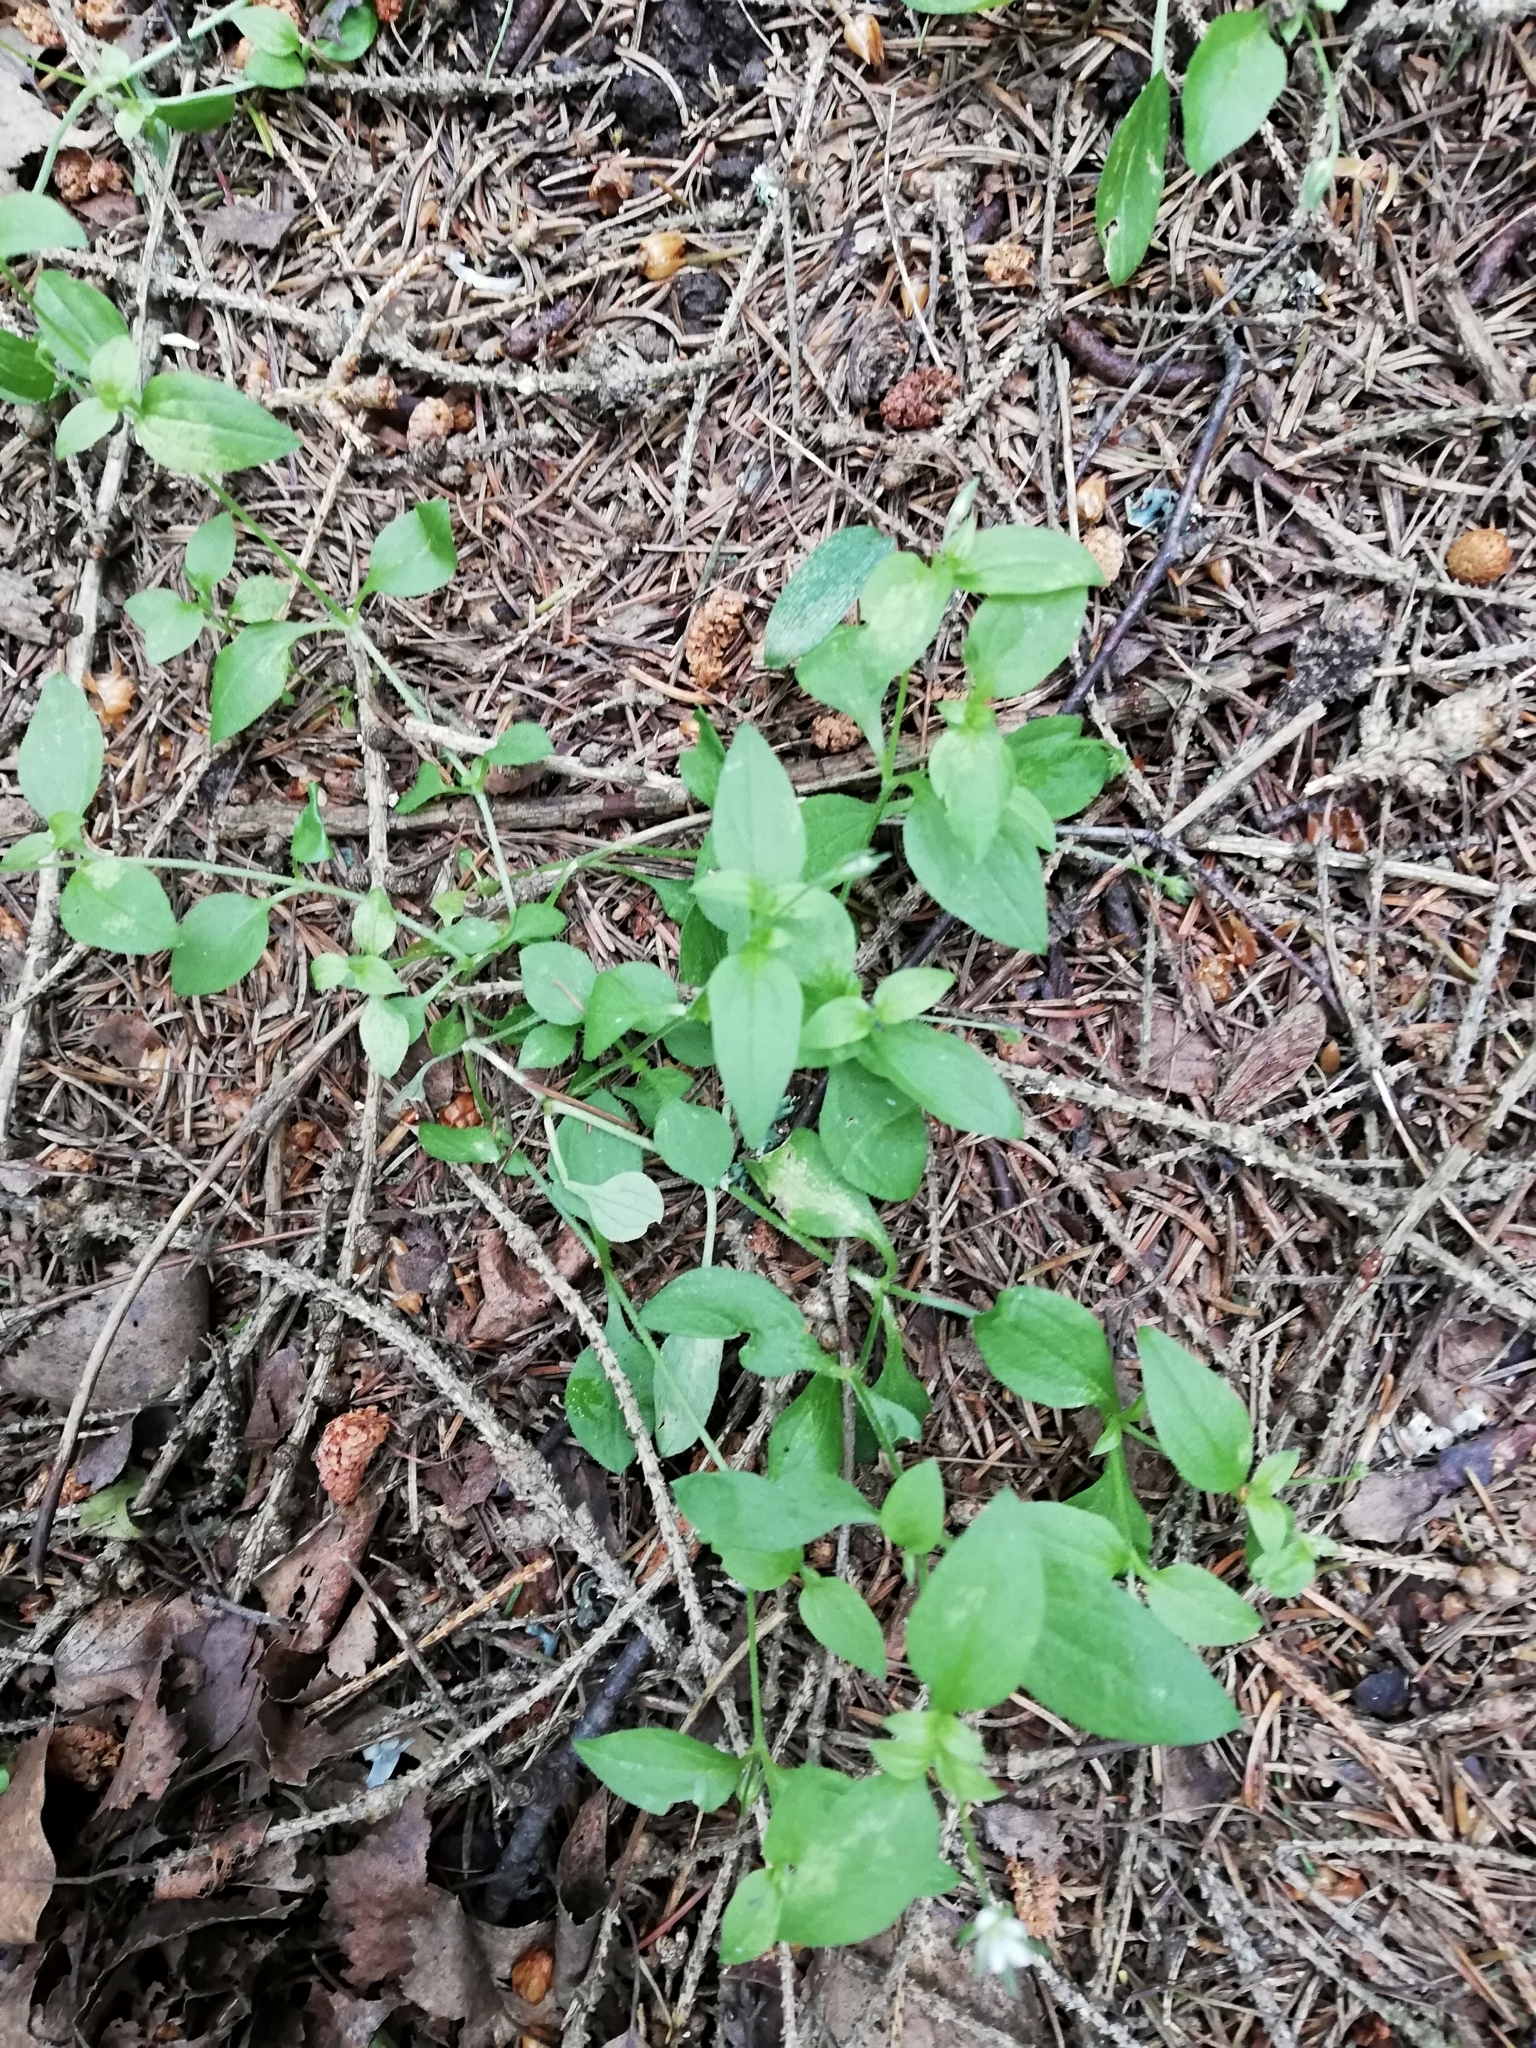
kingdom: Plantae
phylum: Tracheophyta
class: Magnoliopsida
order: Caryophyllales
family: Caryophyllaceae
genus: Moehringia
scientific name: Moehringia trinervia
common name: Three-nerved sandwort
